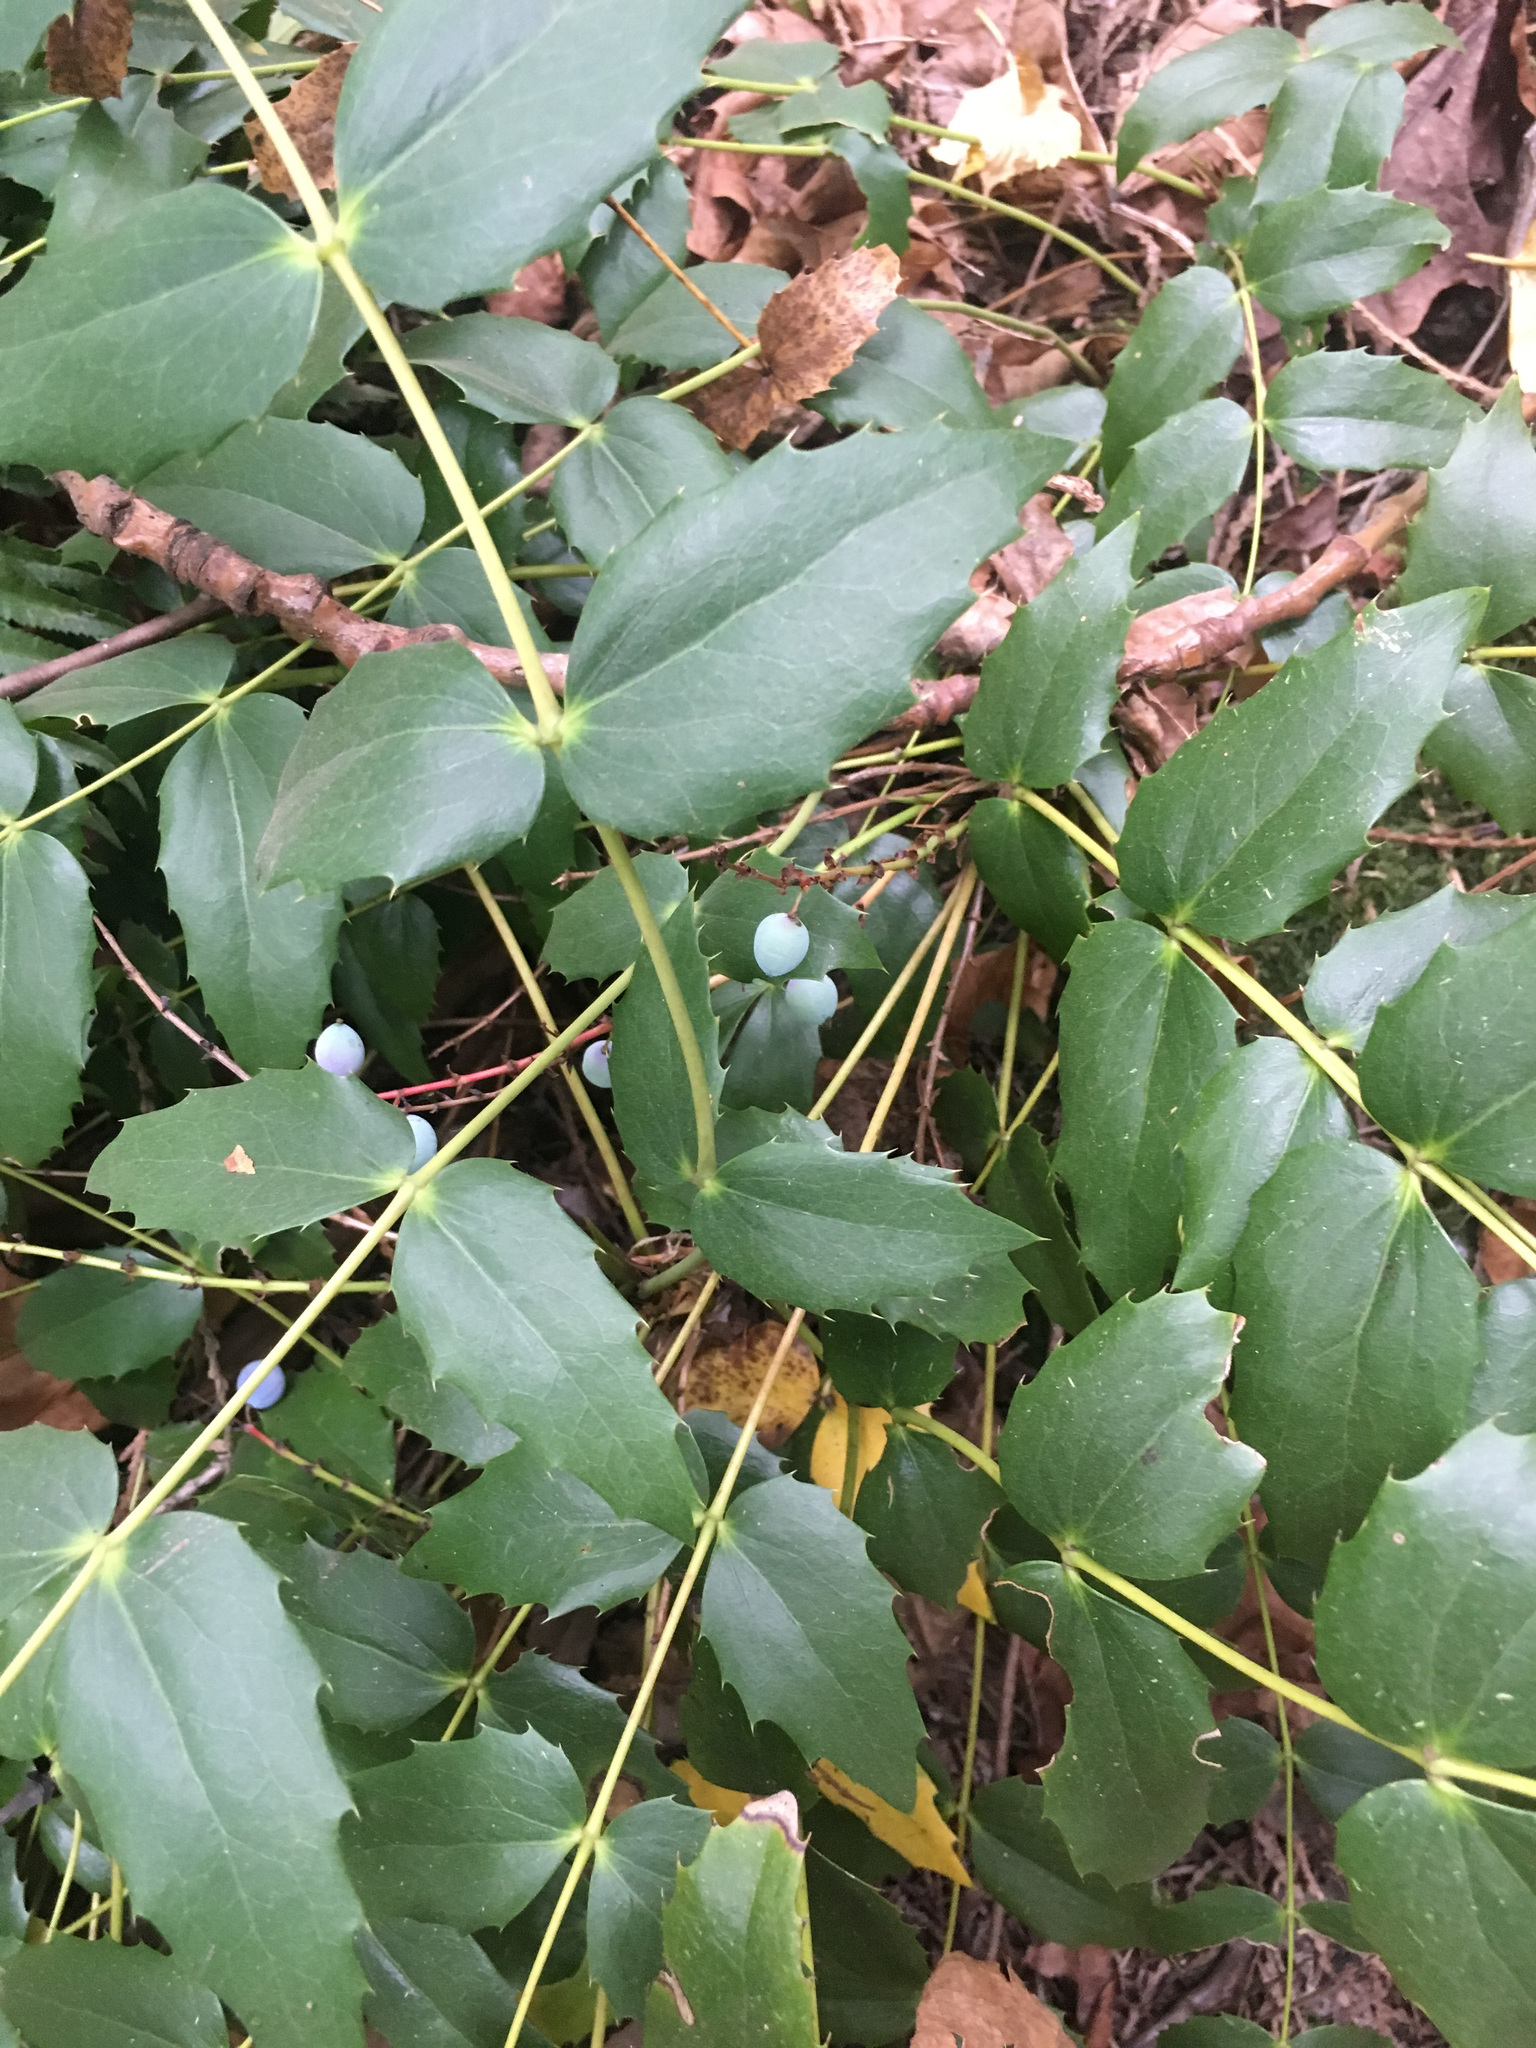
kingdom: Plantae
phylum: Tracheophyta
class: Magnoliopsida
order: Ranunculales
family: Berberidaceae
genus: Mahonia
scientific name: Mahonia nervosa
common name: Cascade oregon-grape
